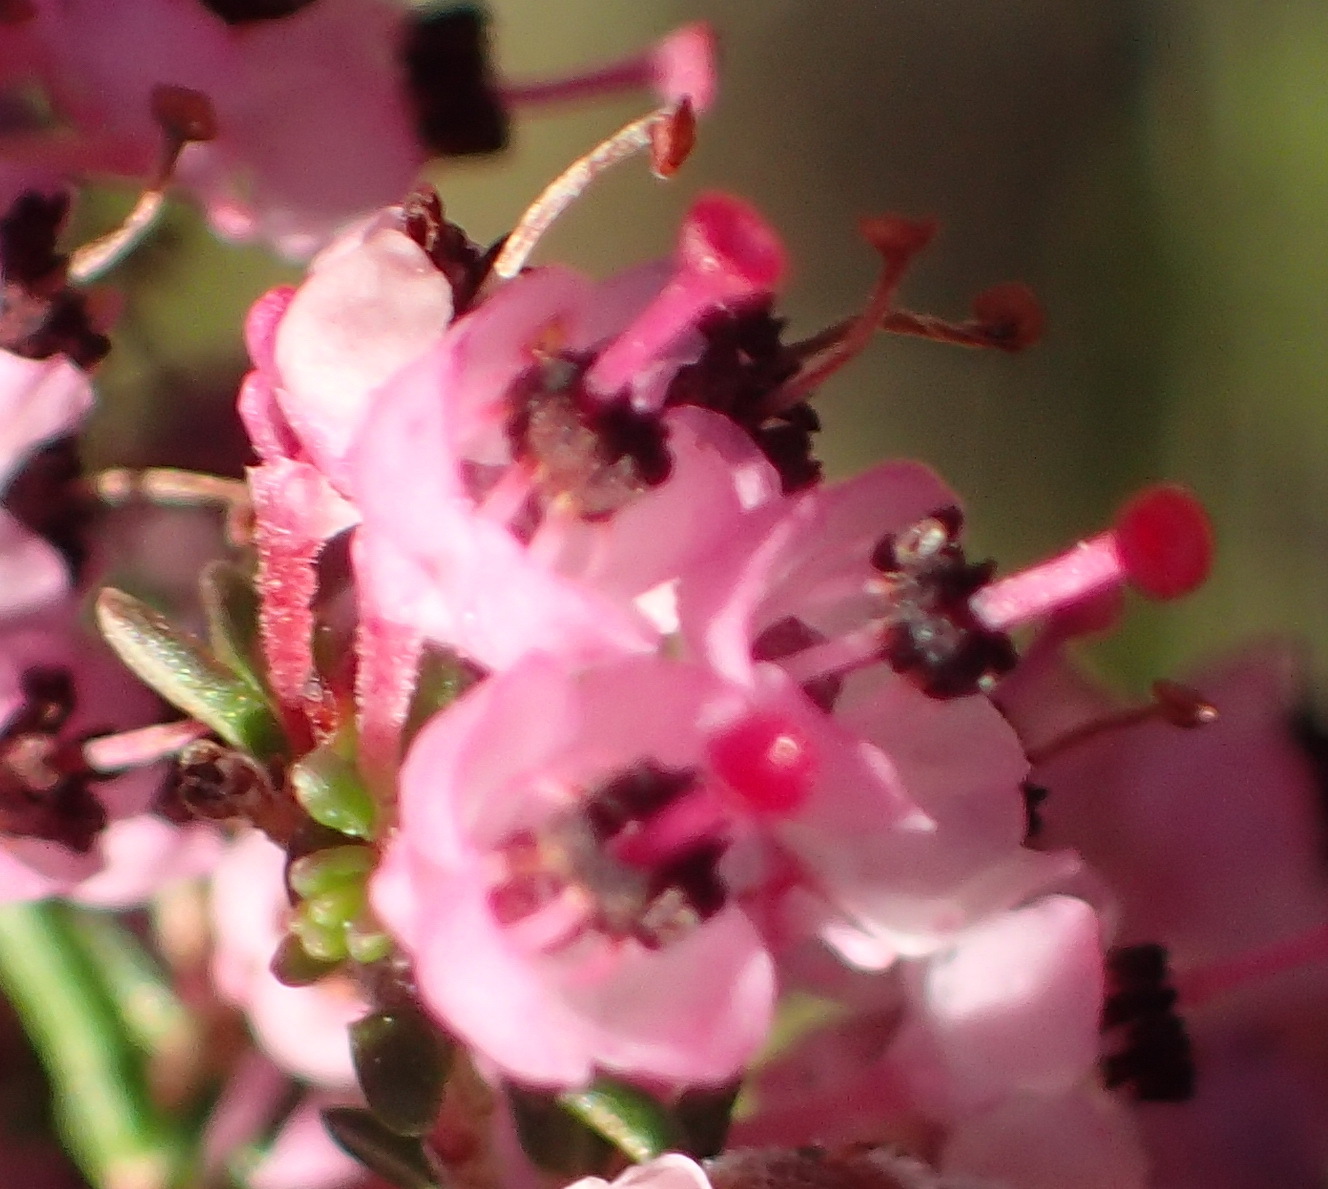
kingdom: Plantae
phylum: Tracheophyta
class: Magnoliopsida
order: Ericales
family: Ericaceae
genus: Erica
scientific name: Erica sparsa
